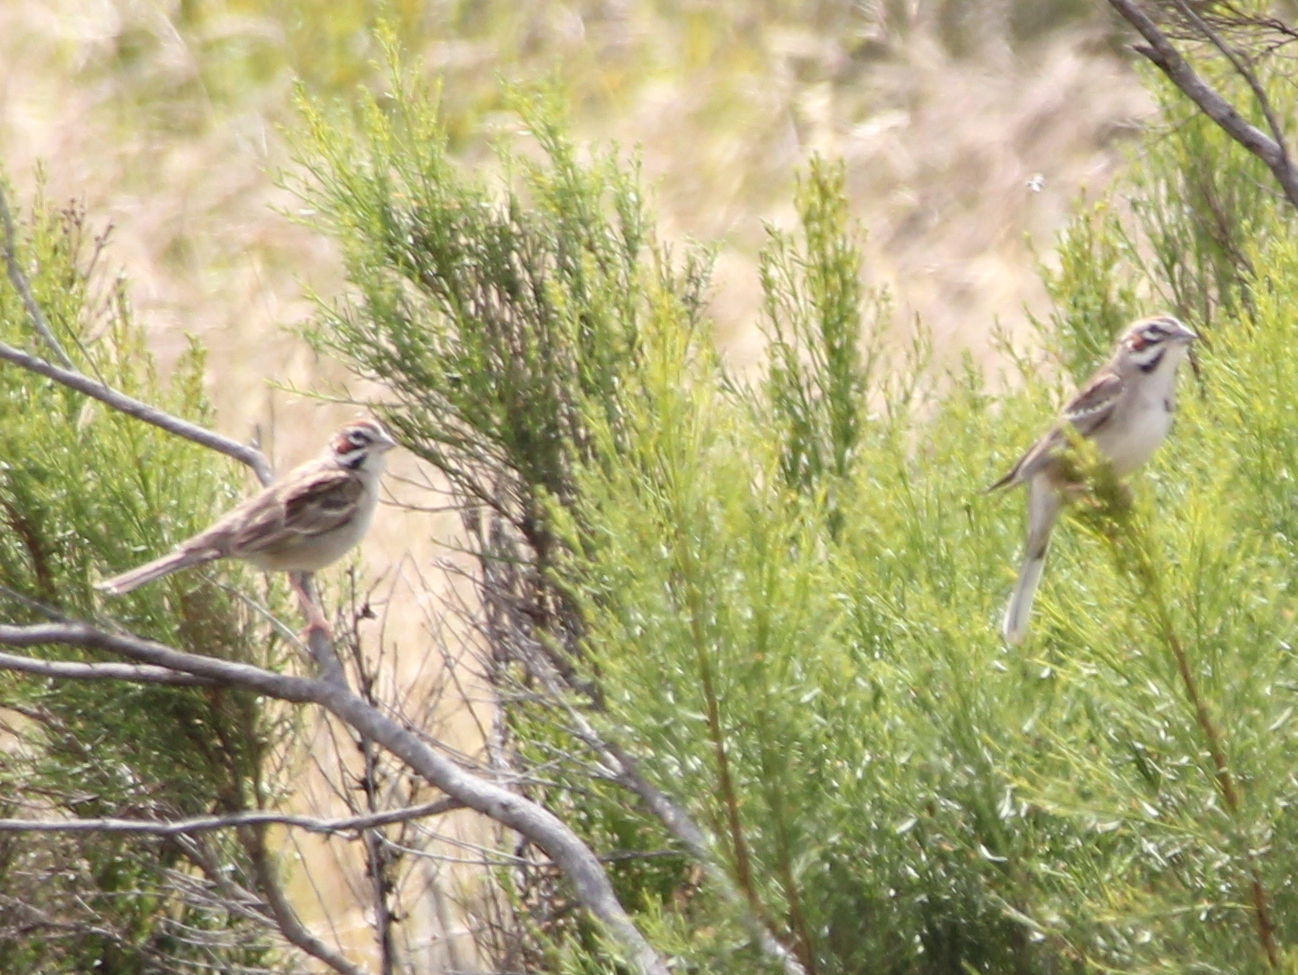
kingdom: Animalia
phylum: Chordata
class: Aves
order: Passeriformes
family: Passerellidae
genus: Chondestes
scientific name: Chondestes grammacus
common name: Lark sparrow
